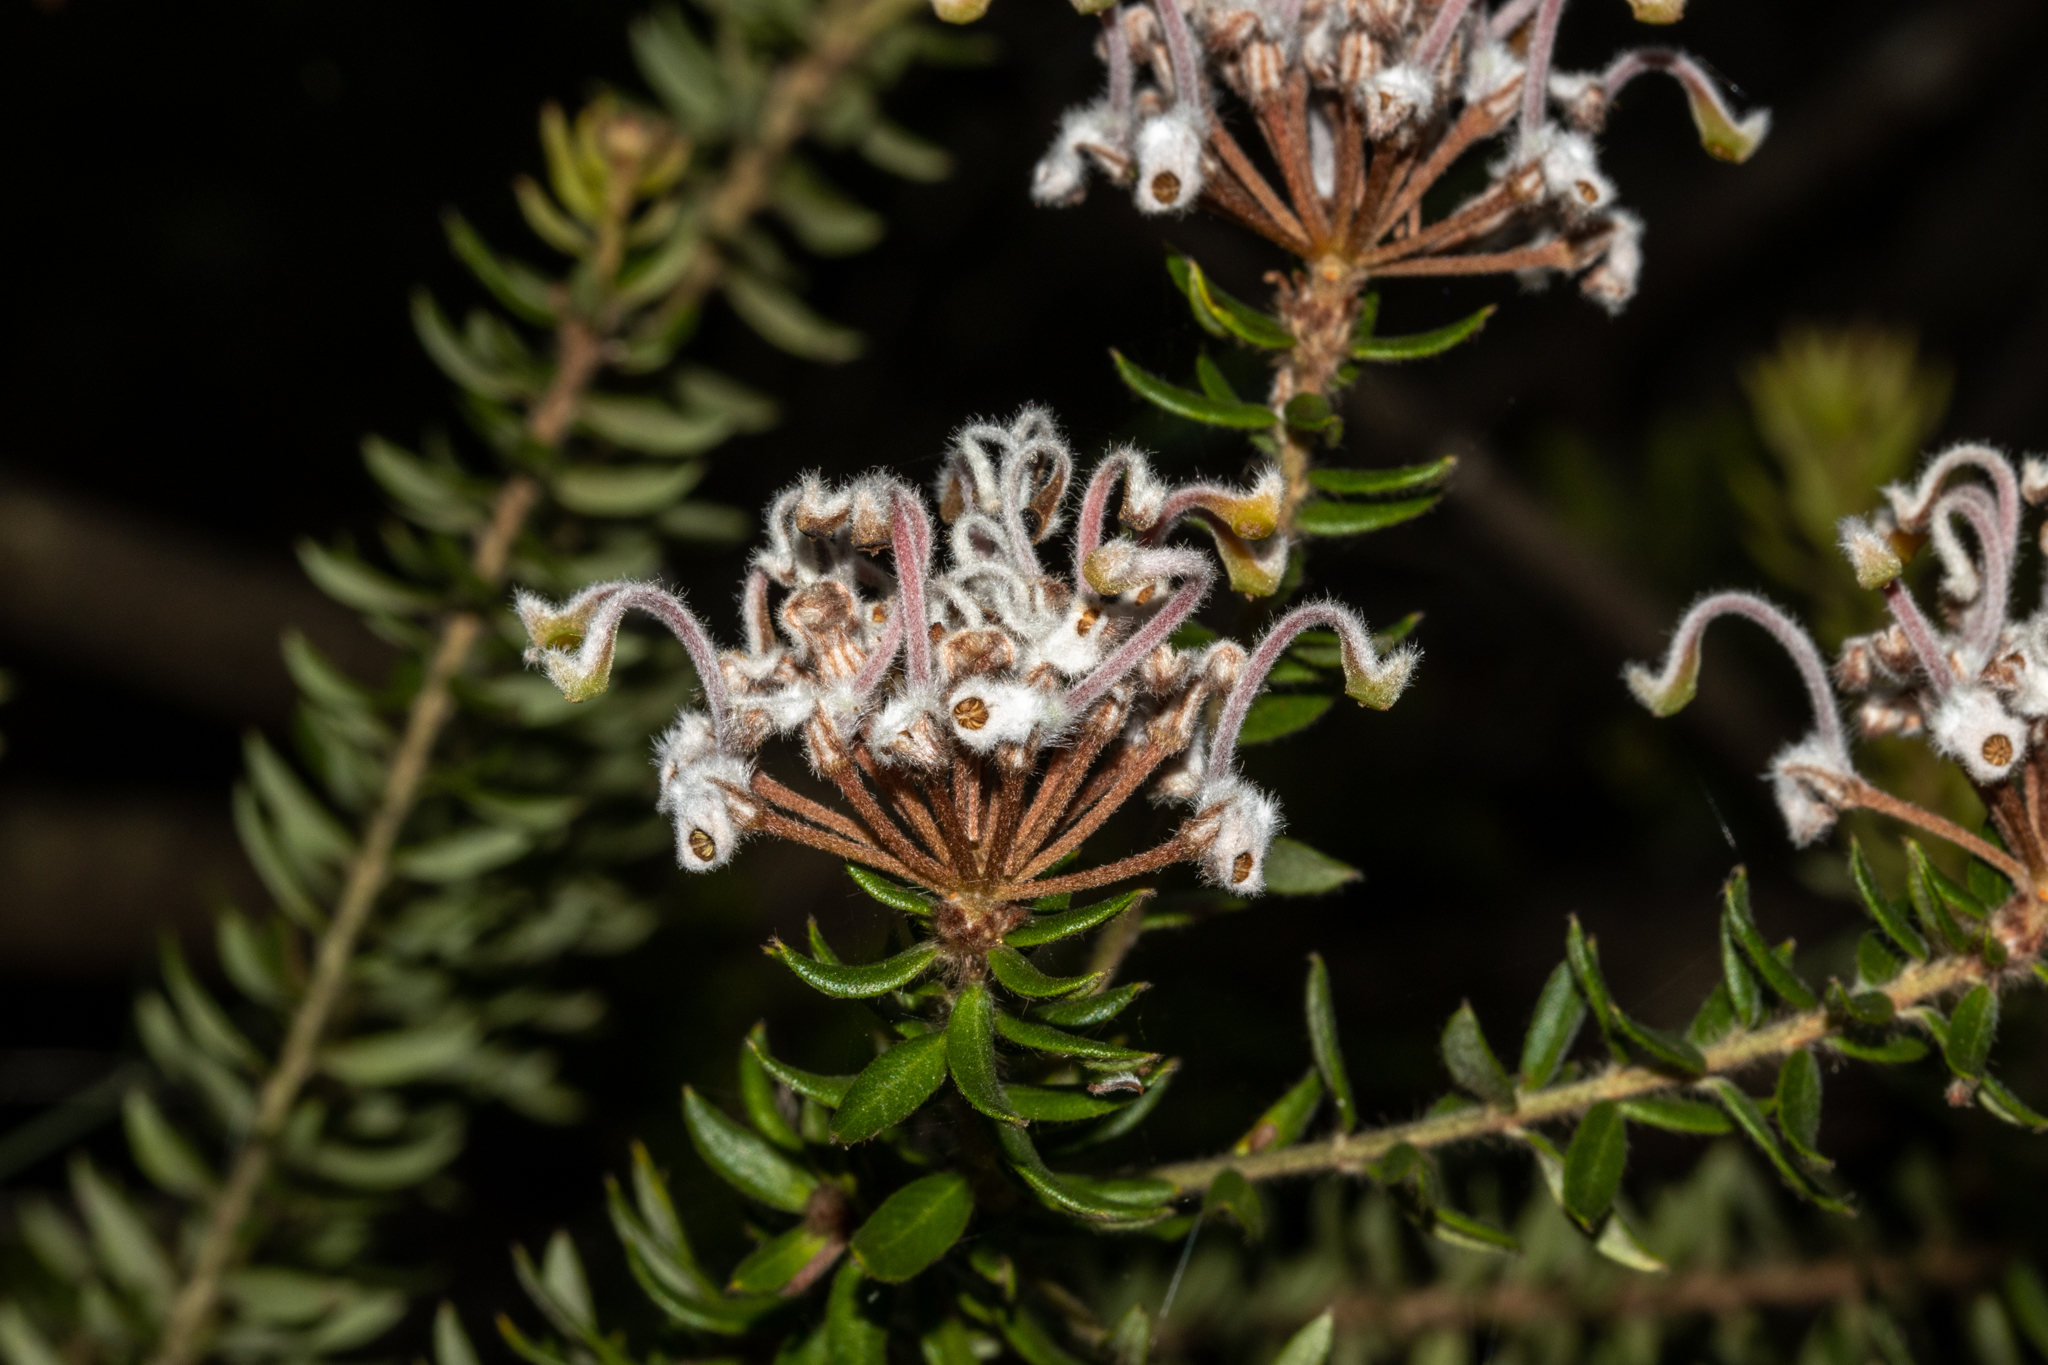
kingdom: Plantae
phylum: Tracheophyta
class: Magnoliopsida
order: Proteales
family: Proteaceae
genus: Grevillea
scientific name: Grevillea buxifolia
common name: Grey spiderflower
